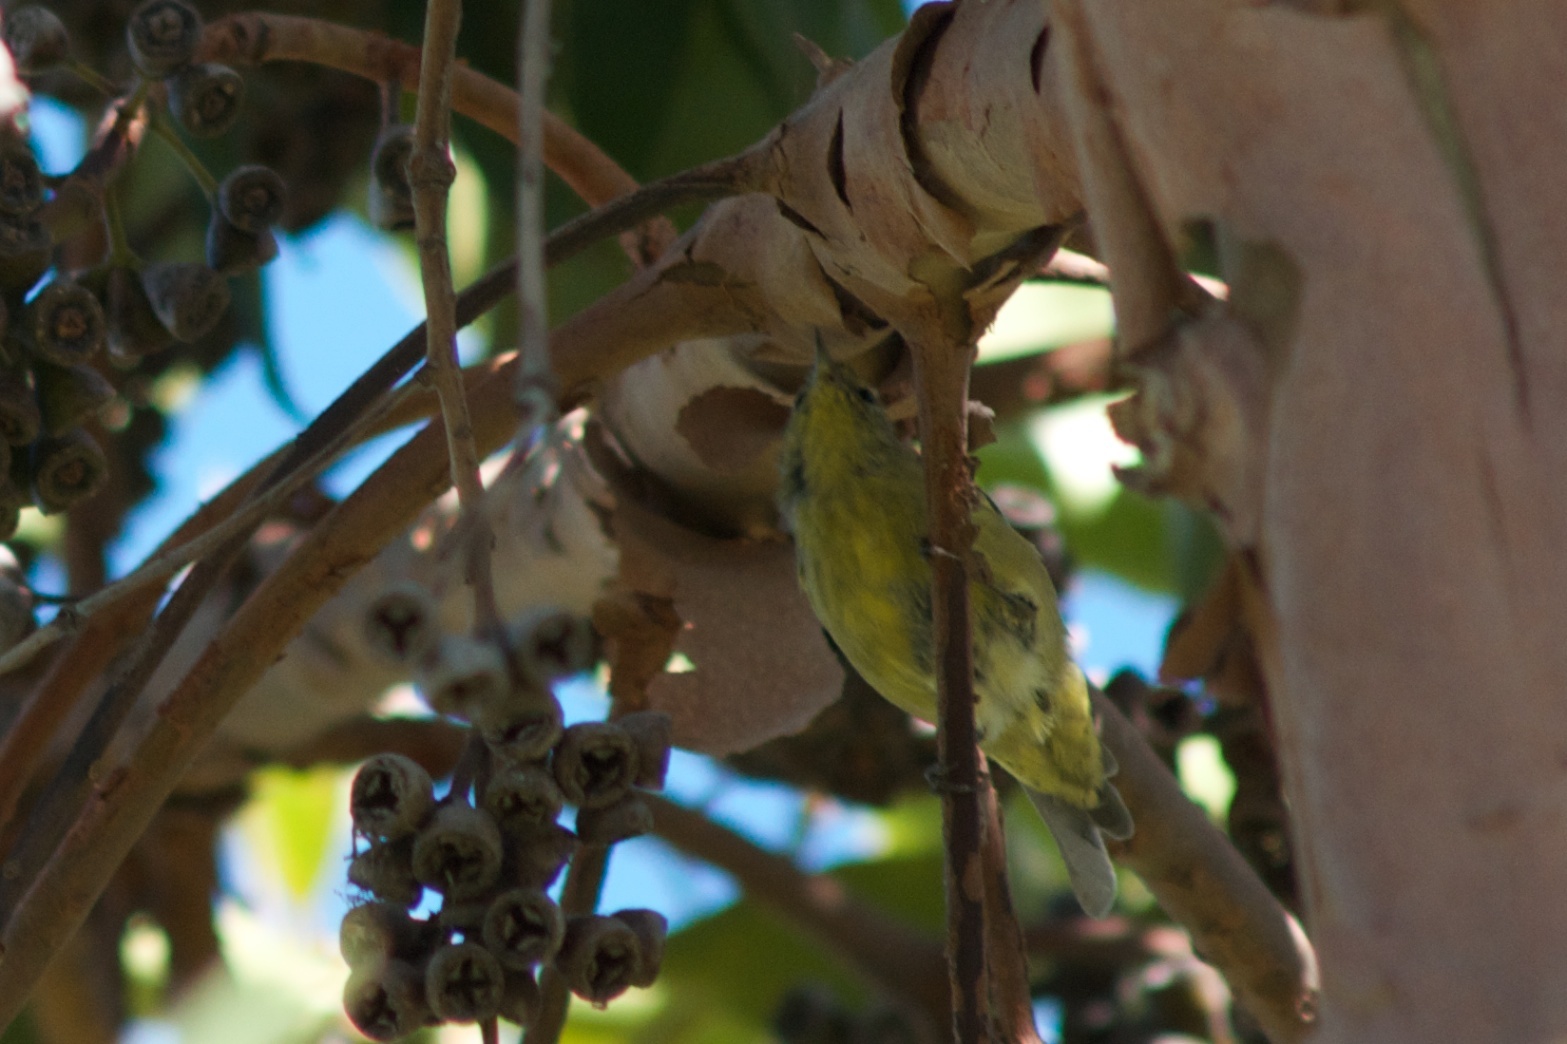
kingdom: Animalia
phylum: Chordata
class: Aves
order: Passeriformes
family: Parulidae
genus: Leiothlypis
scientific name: Leiothlypis celata
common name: Orange-crowned warbler
